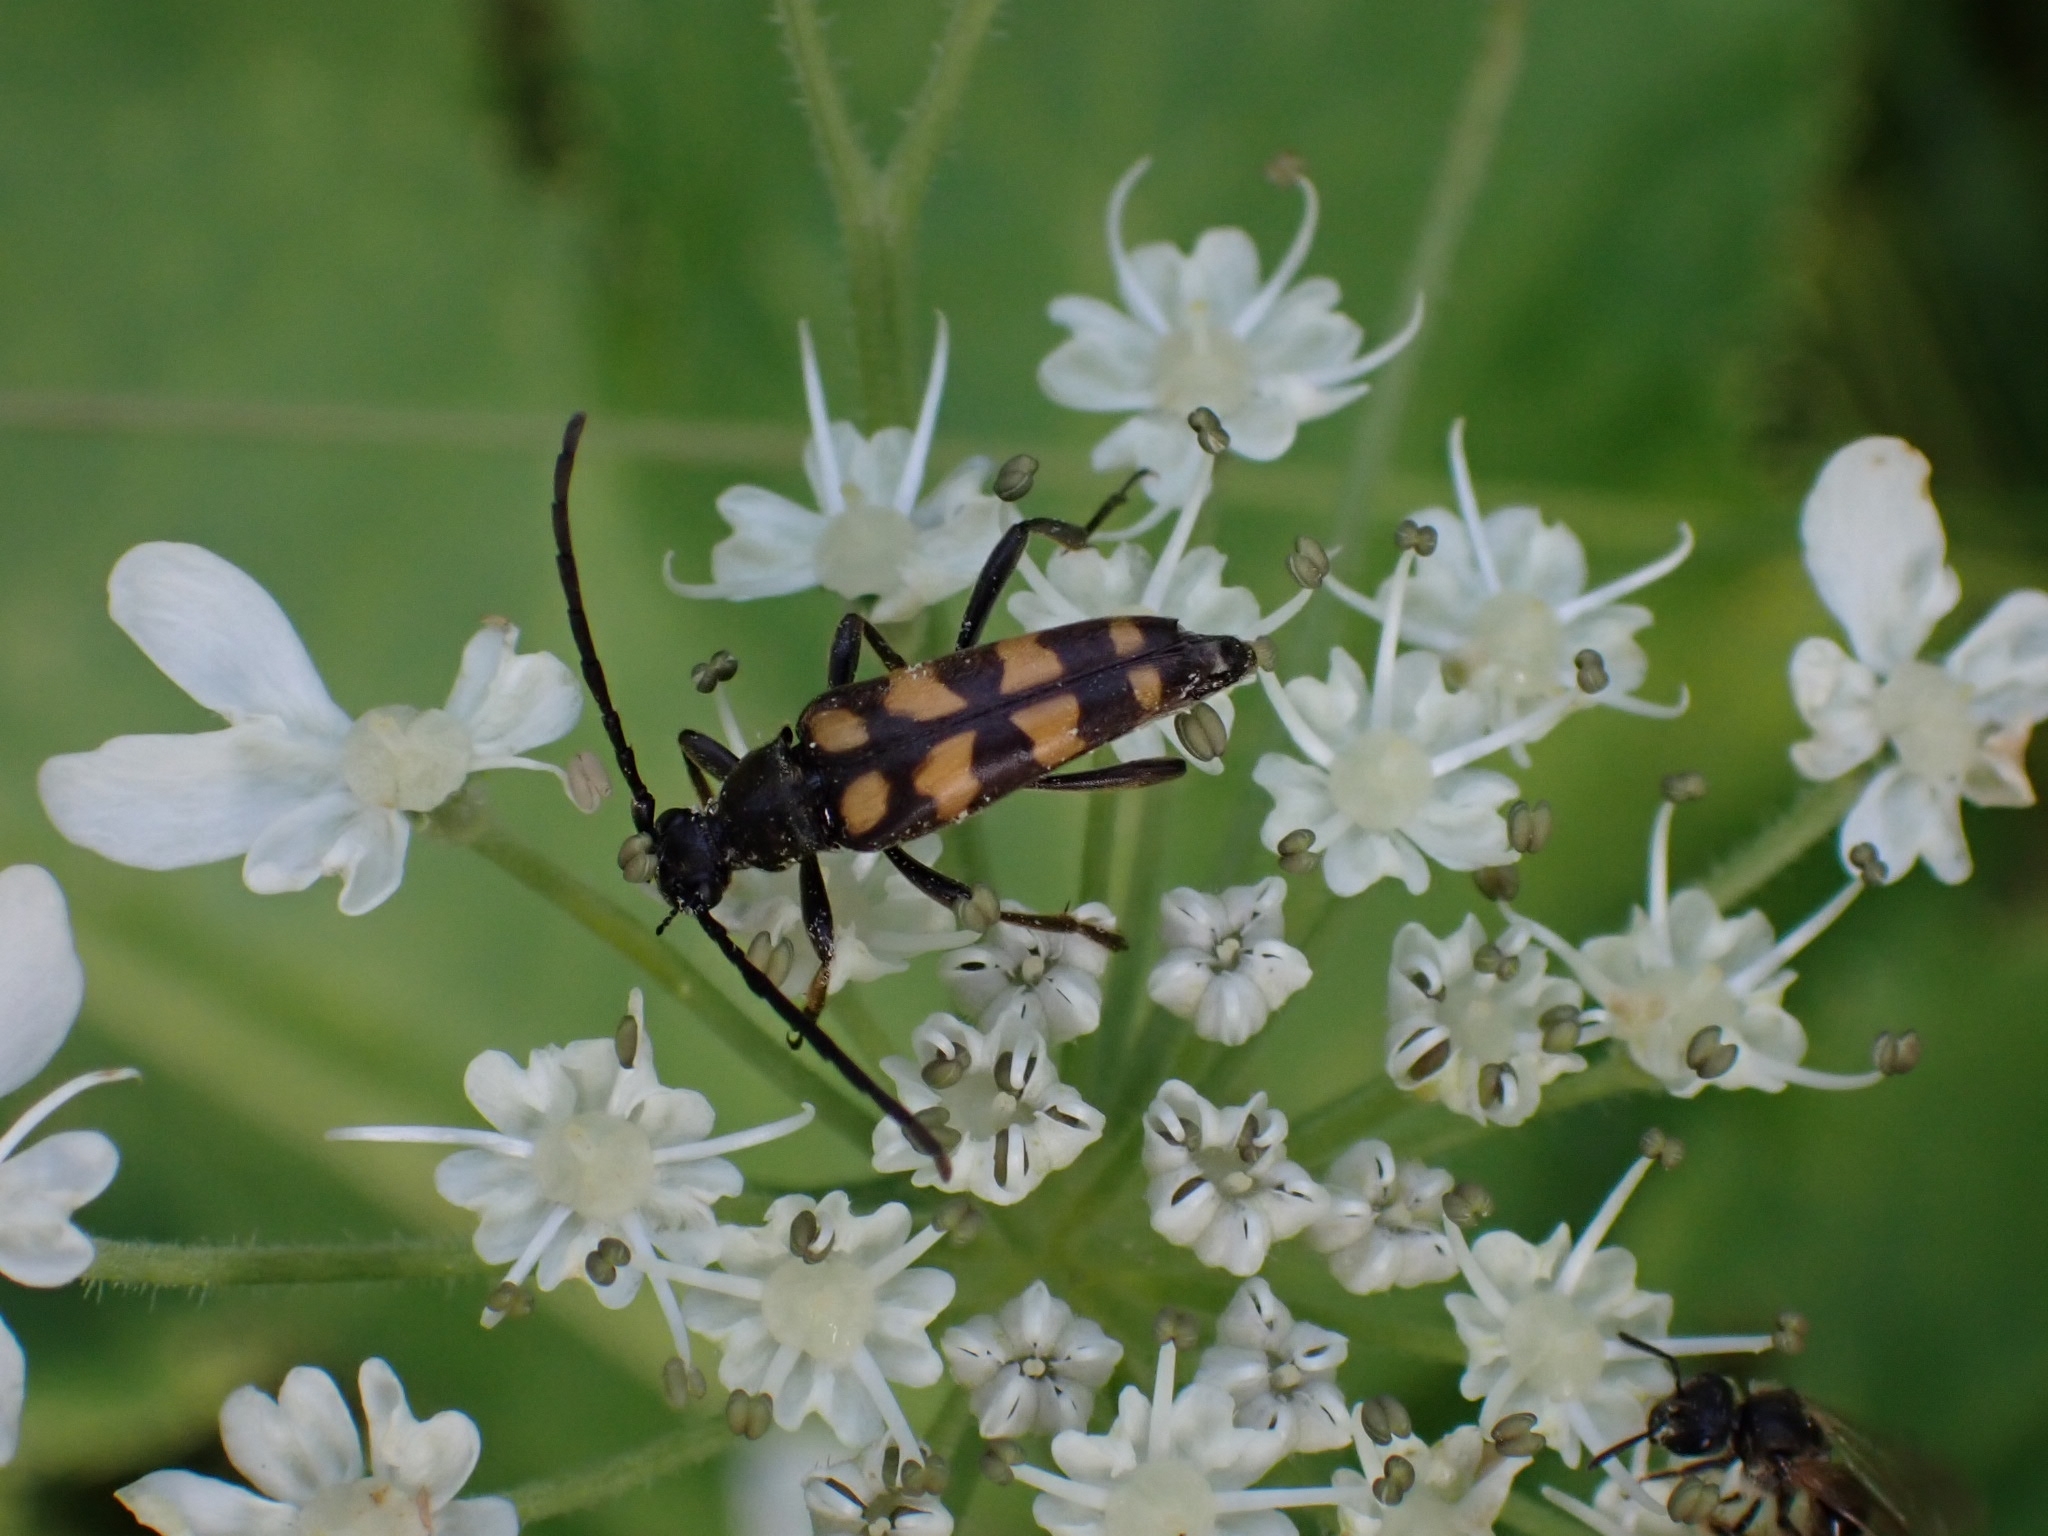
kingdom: Animalia
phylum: Arthropoda
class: Insecta
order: Coleoptera
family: Cerambycidae
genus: Leptura
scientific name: Leptura quadrifasciata
